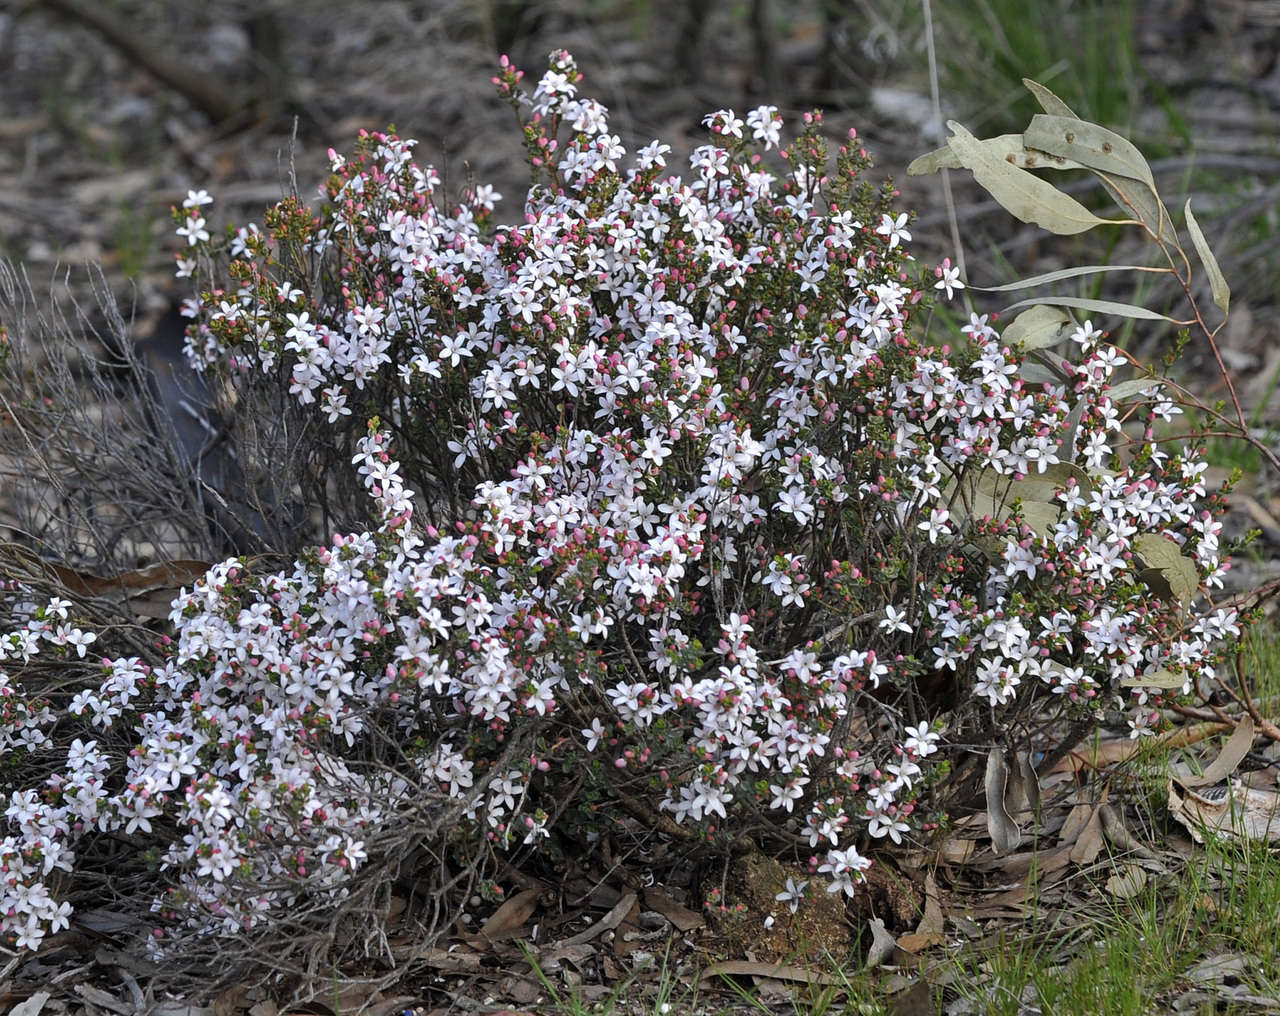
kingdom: Plantae
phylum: Tracheophyta
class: Magnoliopsida
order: Sapindales
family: Rutaceae
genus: Philotheca
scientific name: Philotheca verrucosa
